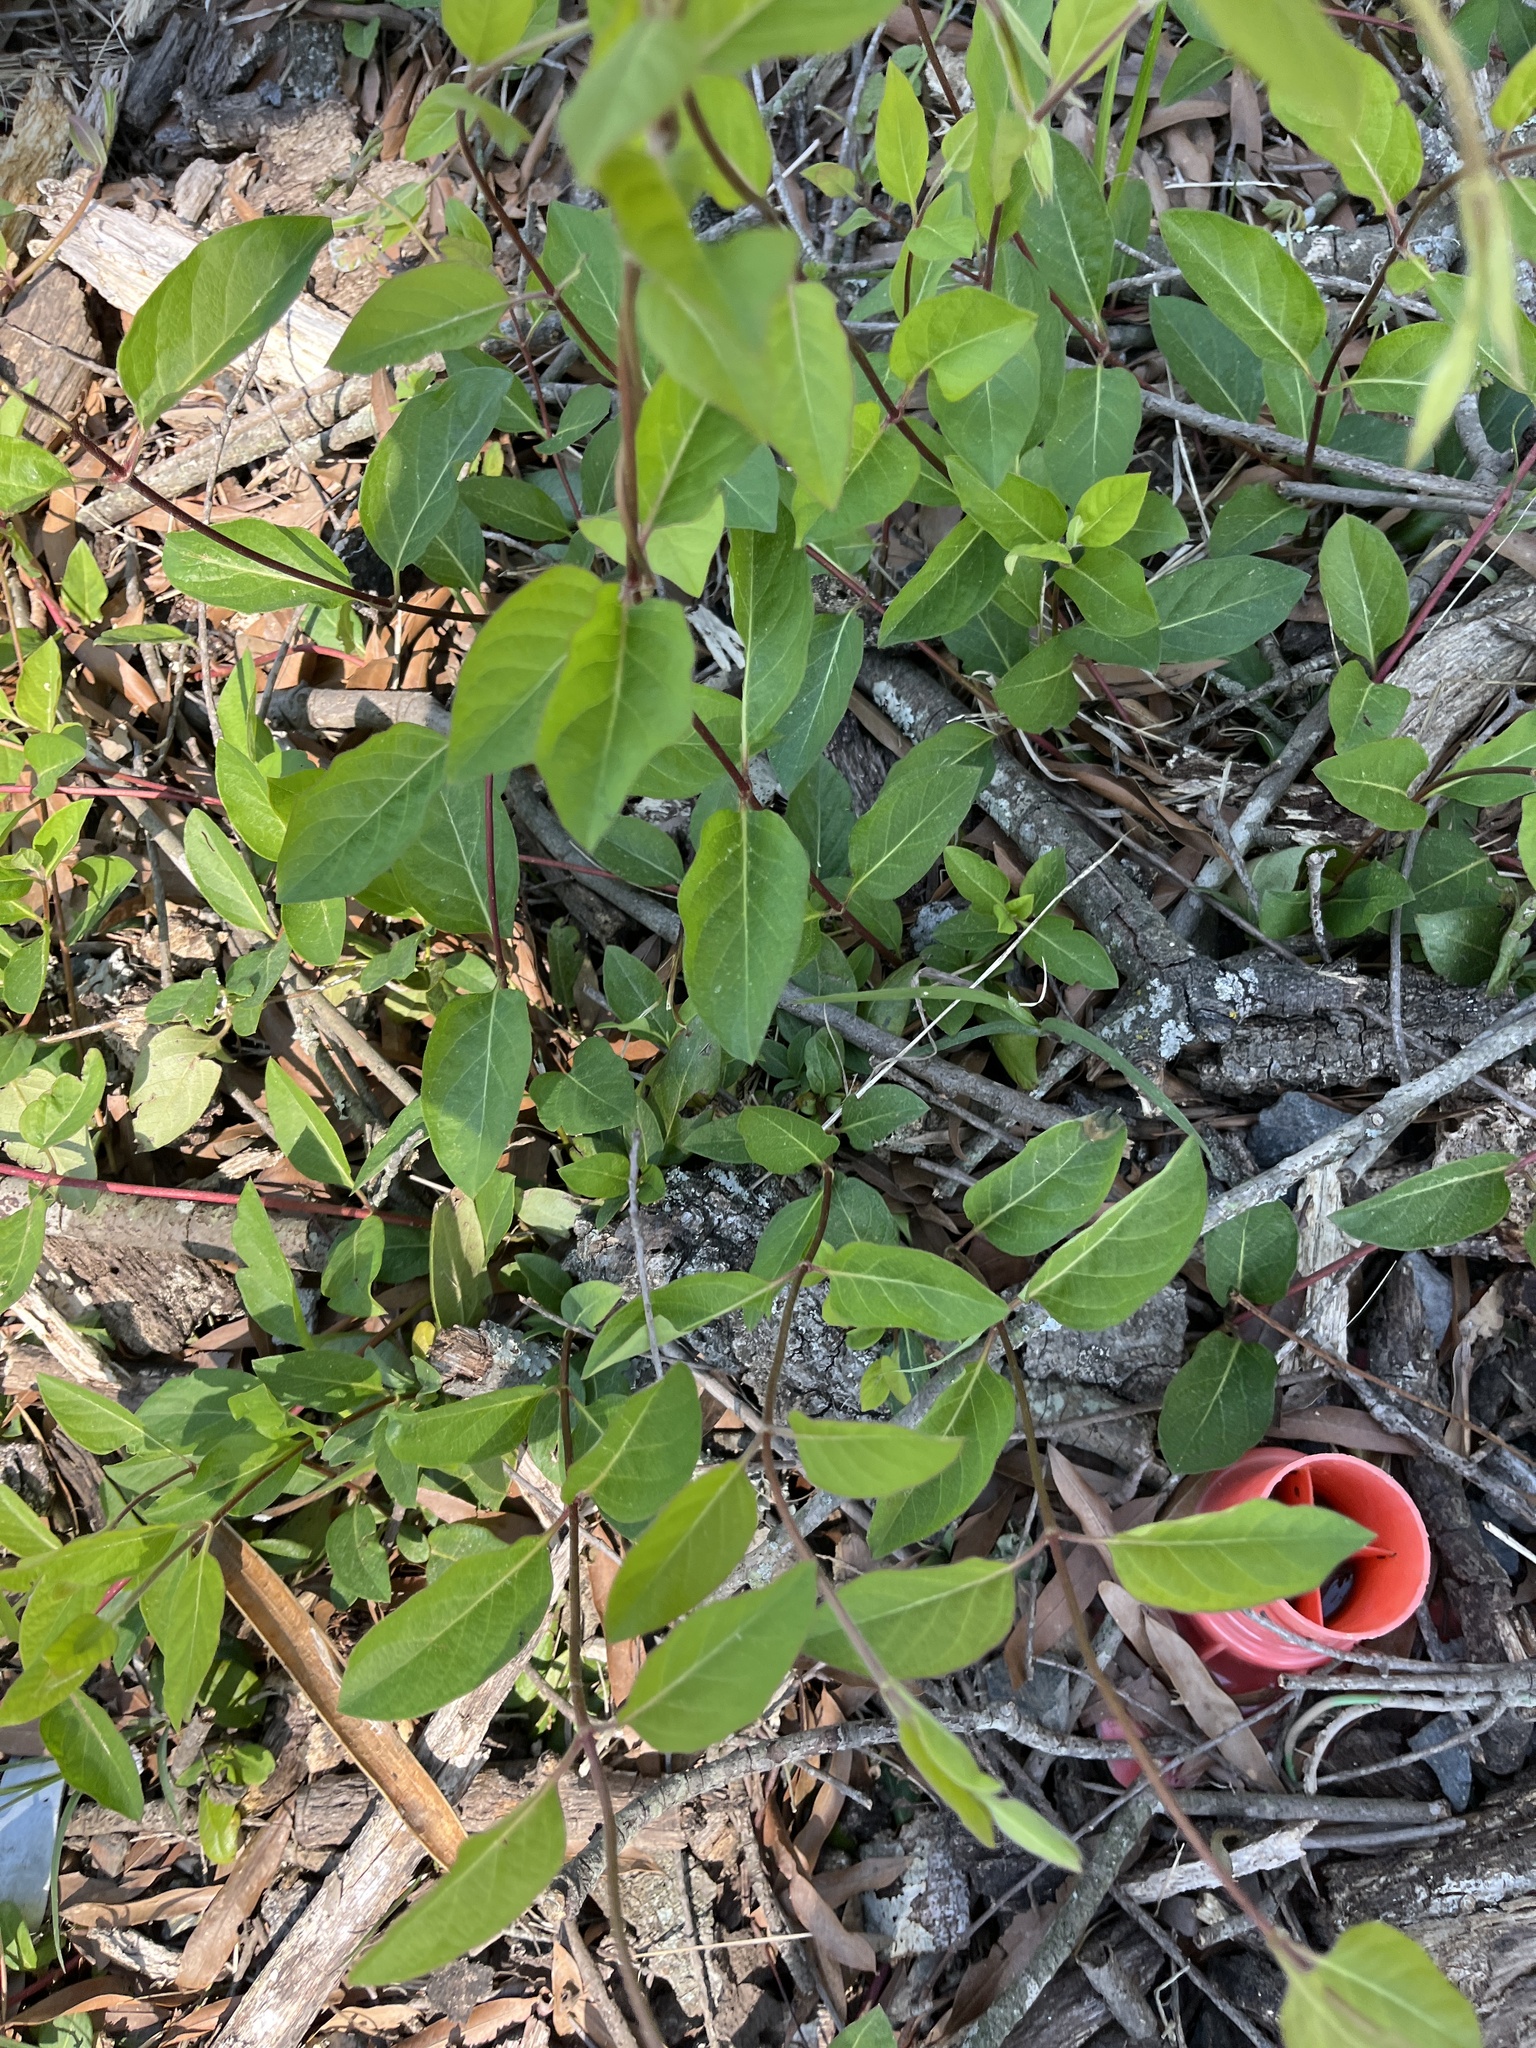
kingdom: Plantae
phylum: Tracheophyta
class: Magnoliopsida
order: Dipsacales
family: Caprifoliaceae
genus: Lonicera
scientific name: Lonicera japonica
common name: Japanese honeysuckle
